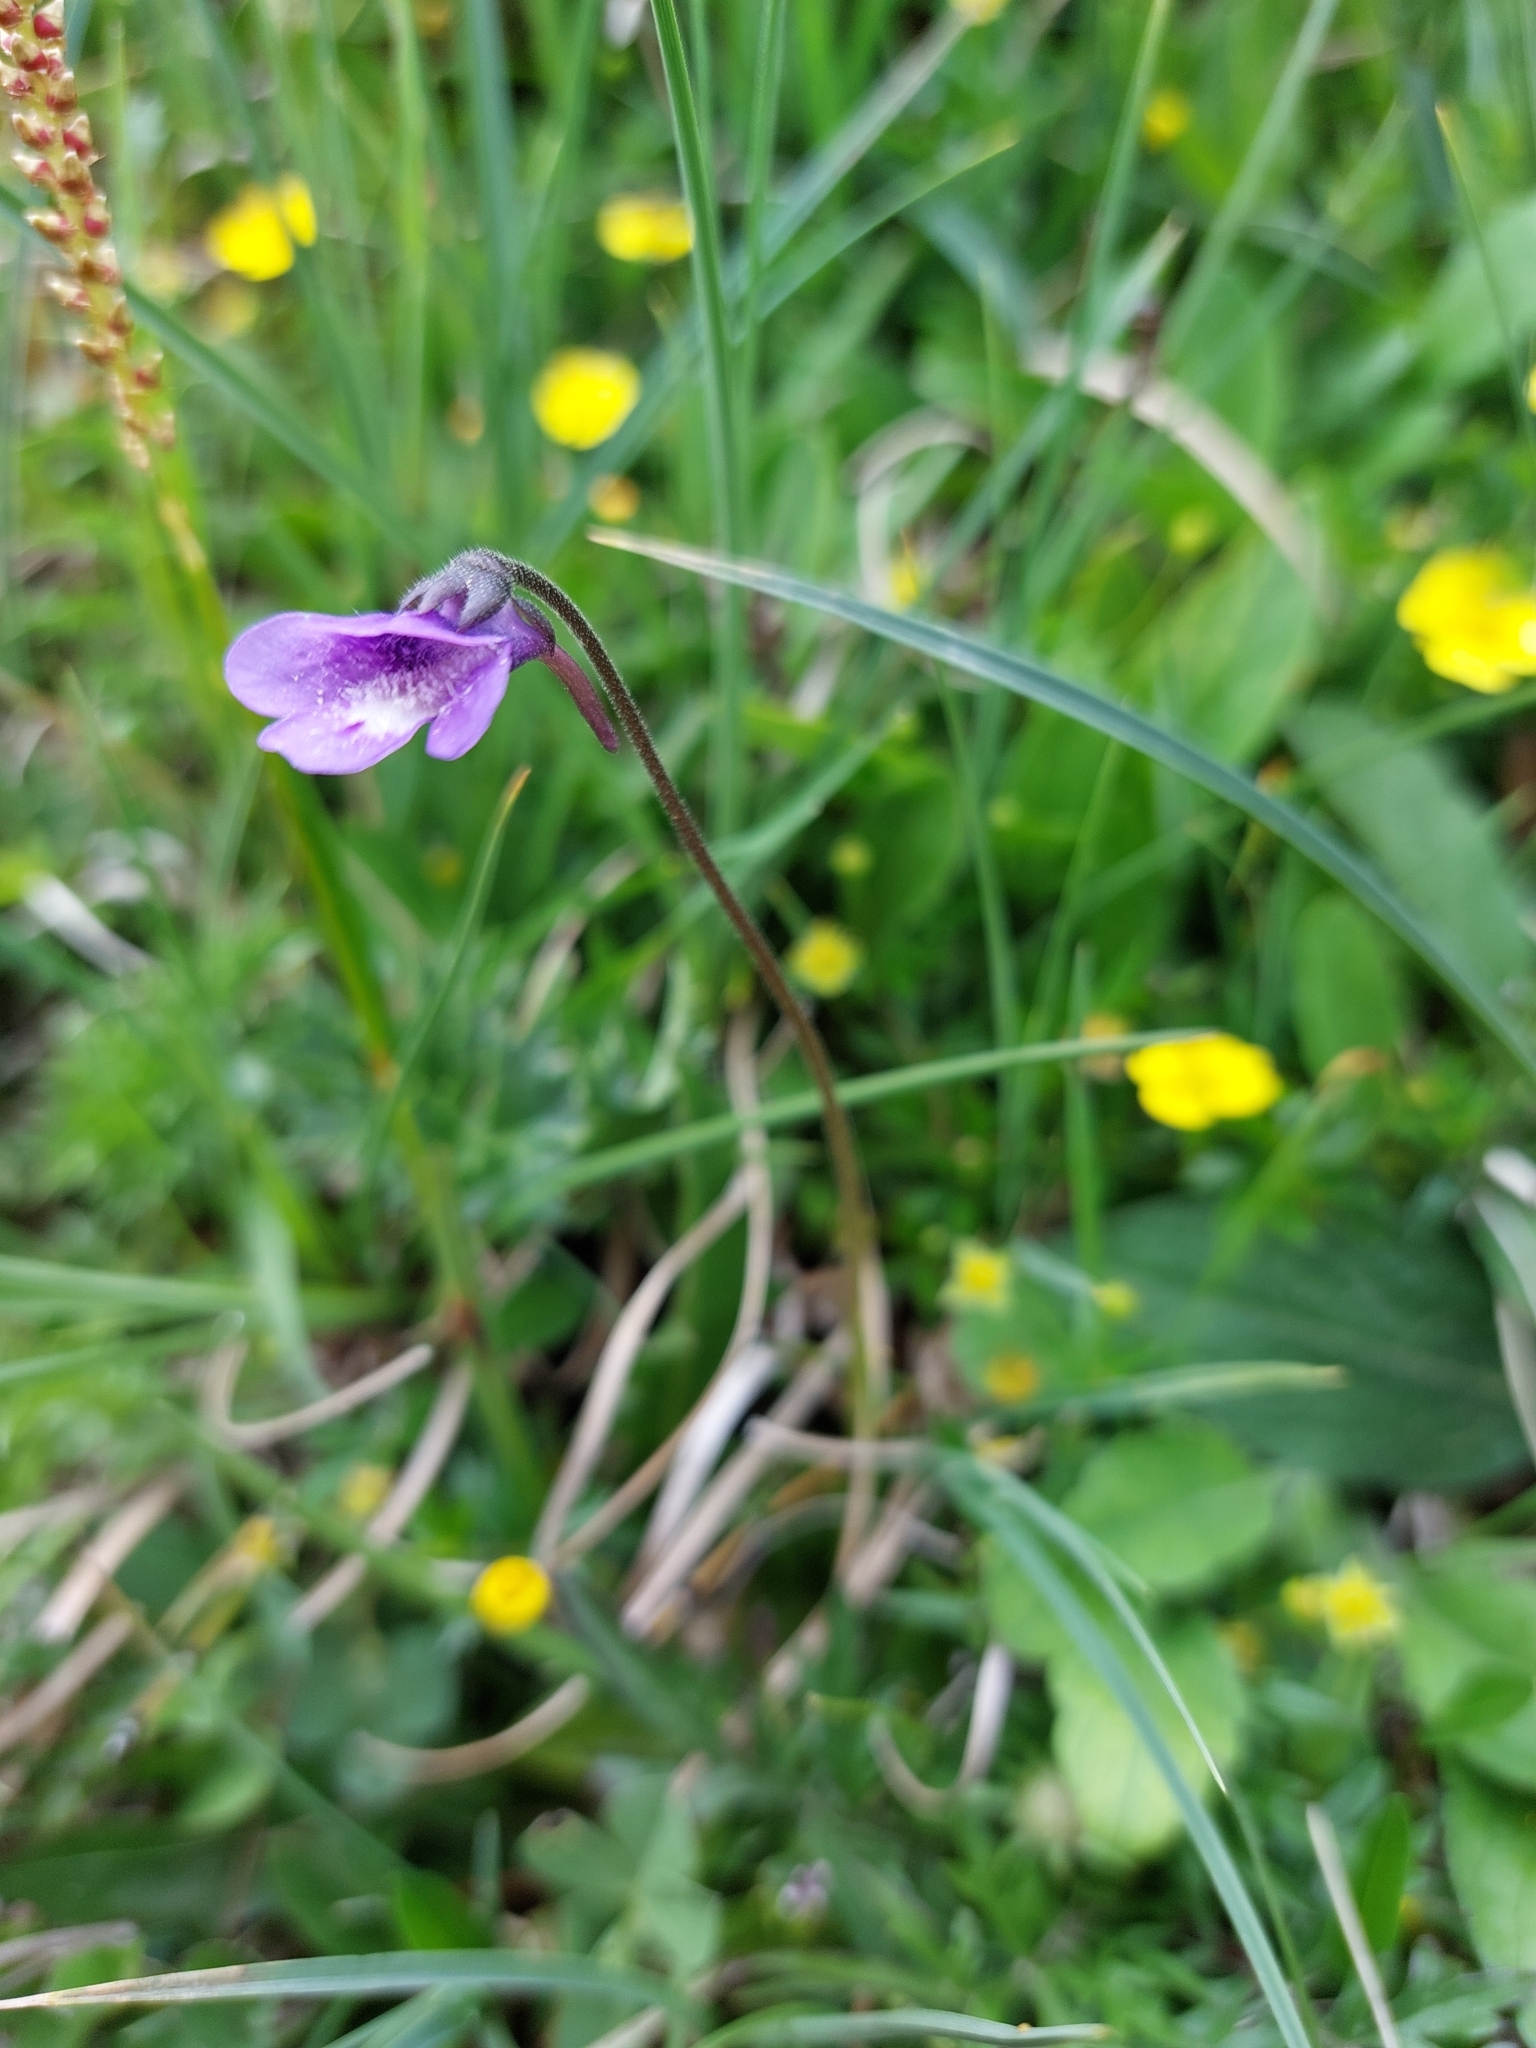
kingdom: Plantae
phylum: Tracheophyta
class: Magnoliopsida
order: Lamiales
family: Lentibulariaceae
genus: Pinguicula
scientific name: Pinguicula vulgaris
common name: Common butterwort
